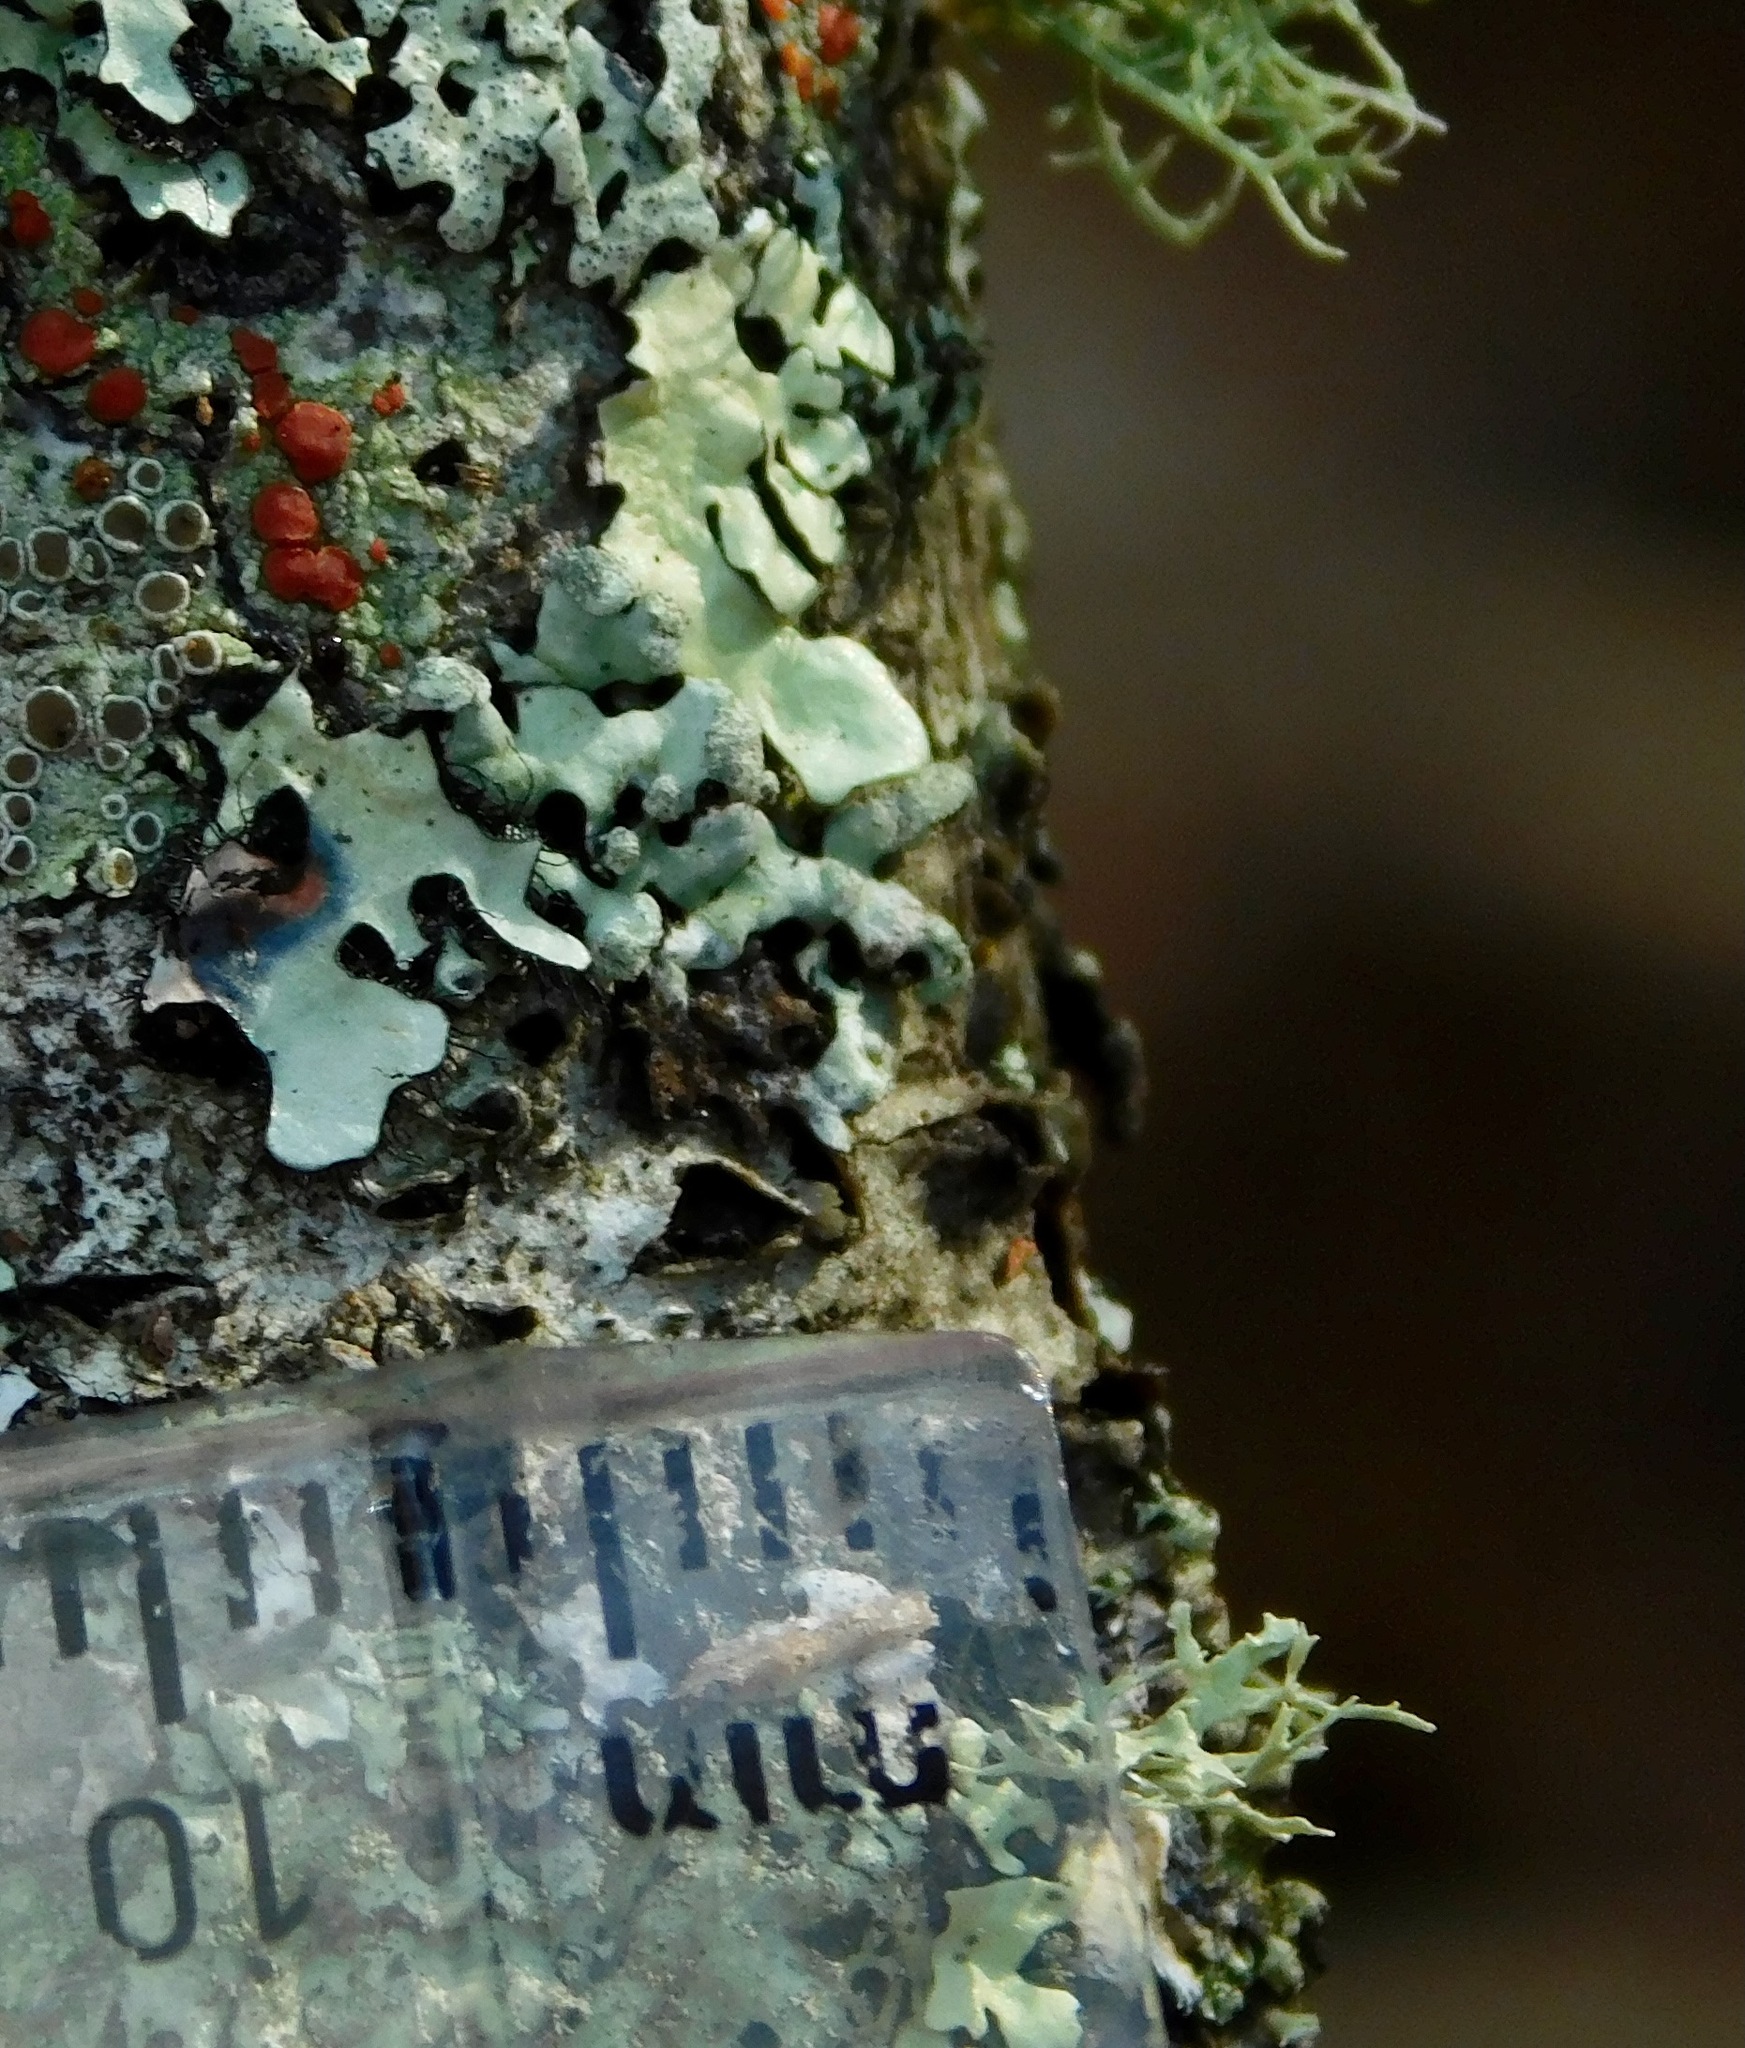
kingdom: Fungi
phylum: Ascomycota
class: Lecanoromycetes
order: Lecanorales
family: Parmeliaceae
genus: Myelochroa
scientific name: Myelochroa metarevoluta
